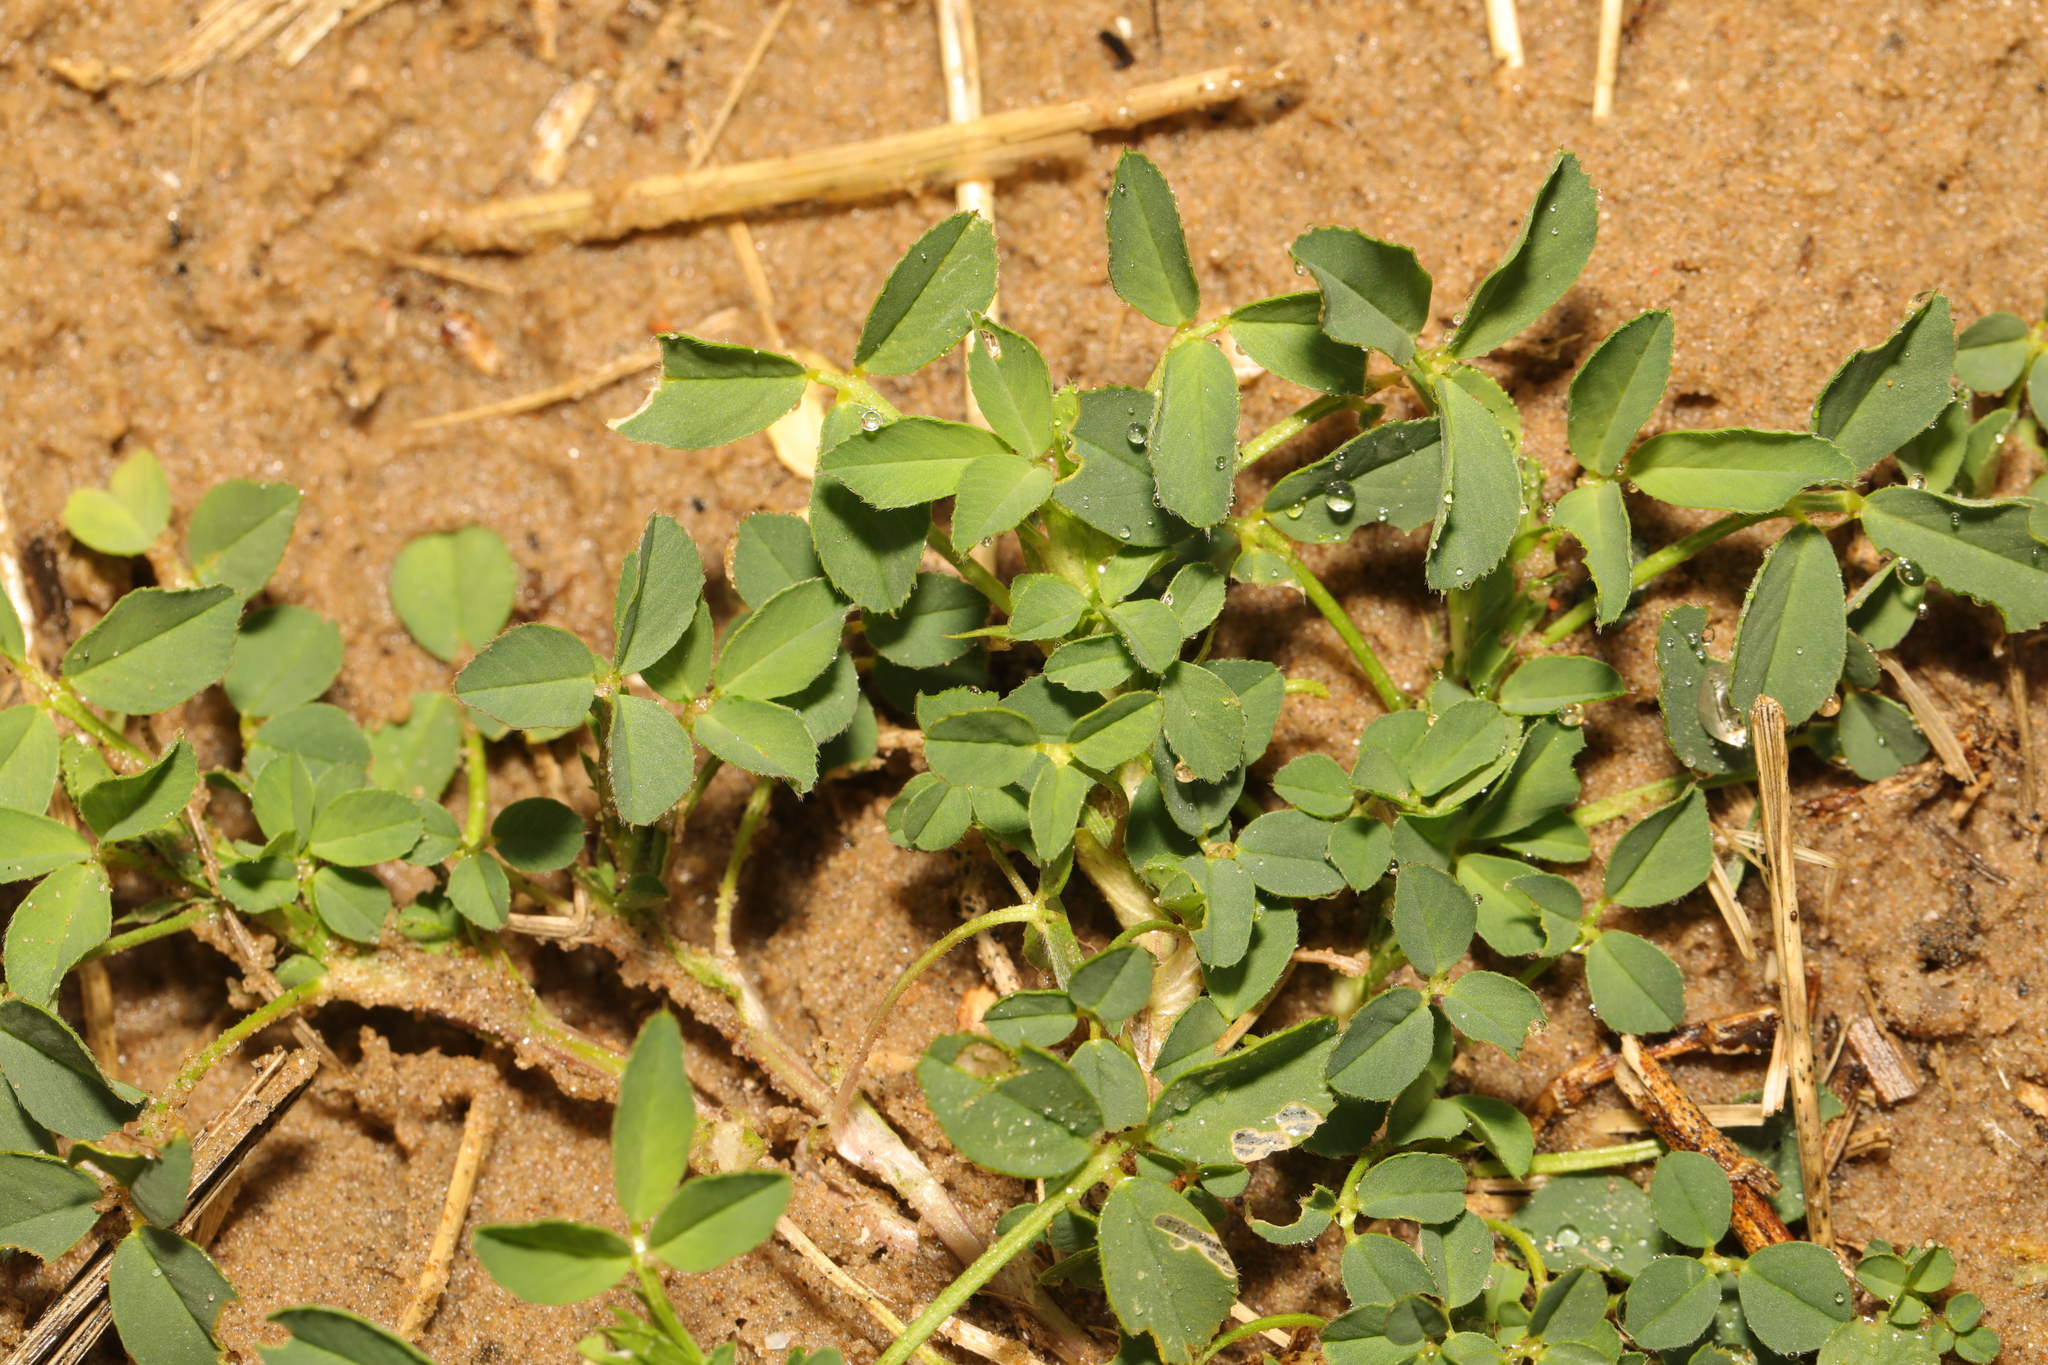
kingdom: Plantae
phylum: Tracheophyta
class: Magnoliopsida
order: Fabales
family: Fabaceae
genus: Medicago
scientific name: Medicago lupulina
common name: Black medick
